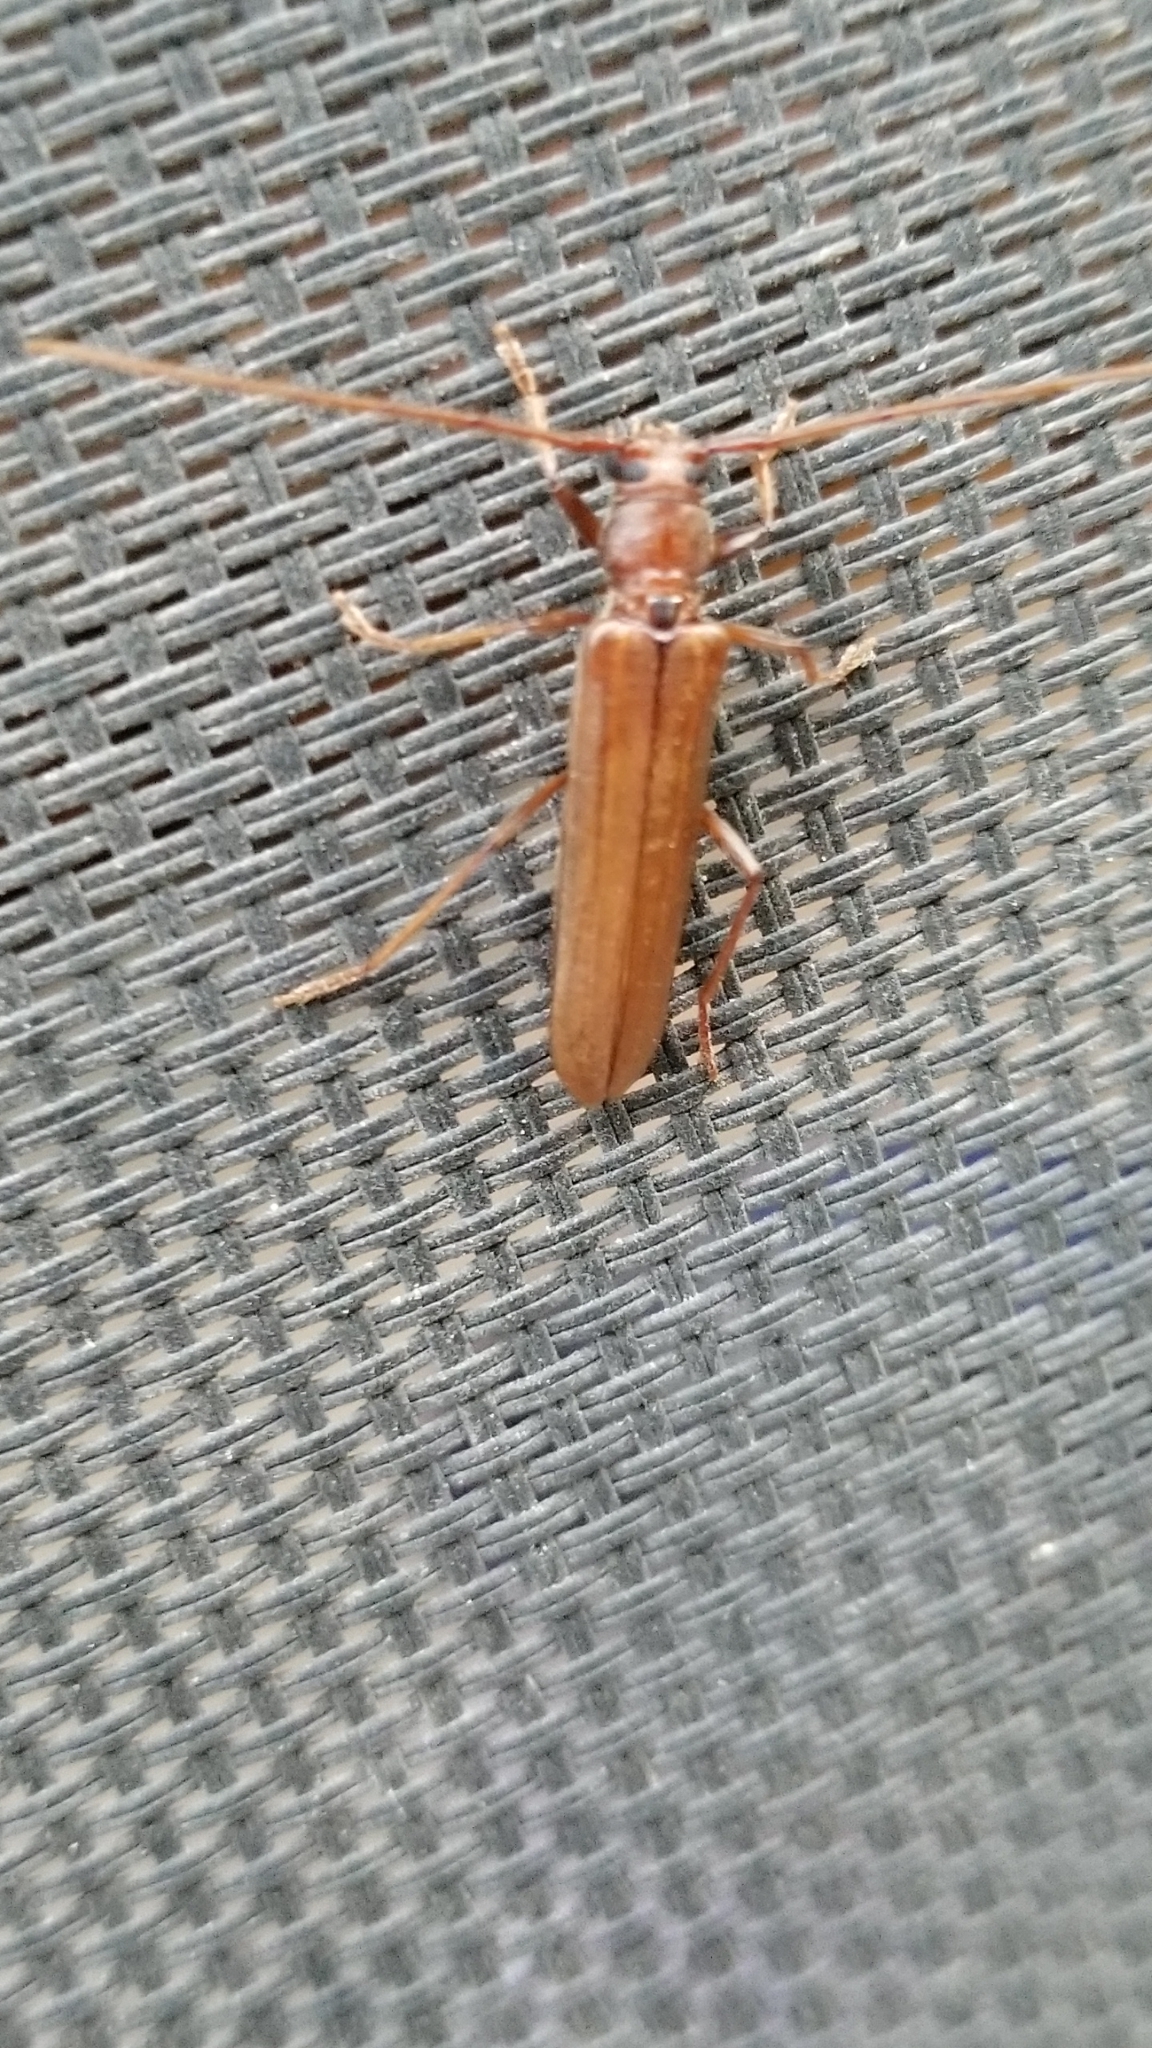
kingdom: Animalia
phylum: Arthropoda
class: Insecta
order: Coleoptera
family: Cerambycidae
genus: Oeme
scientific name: Oeme rigida
